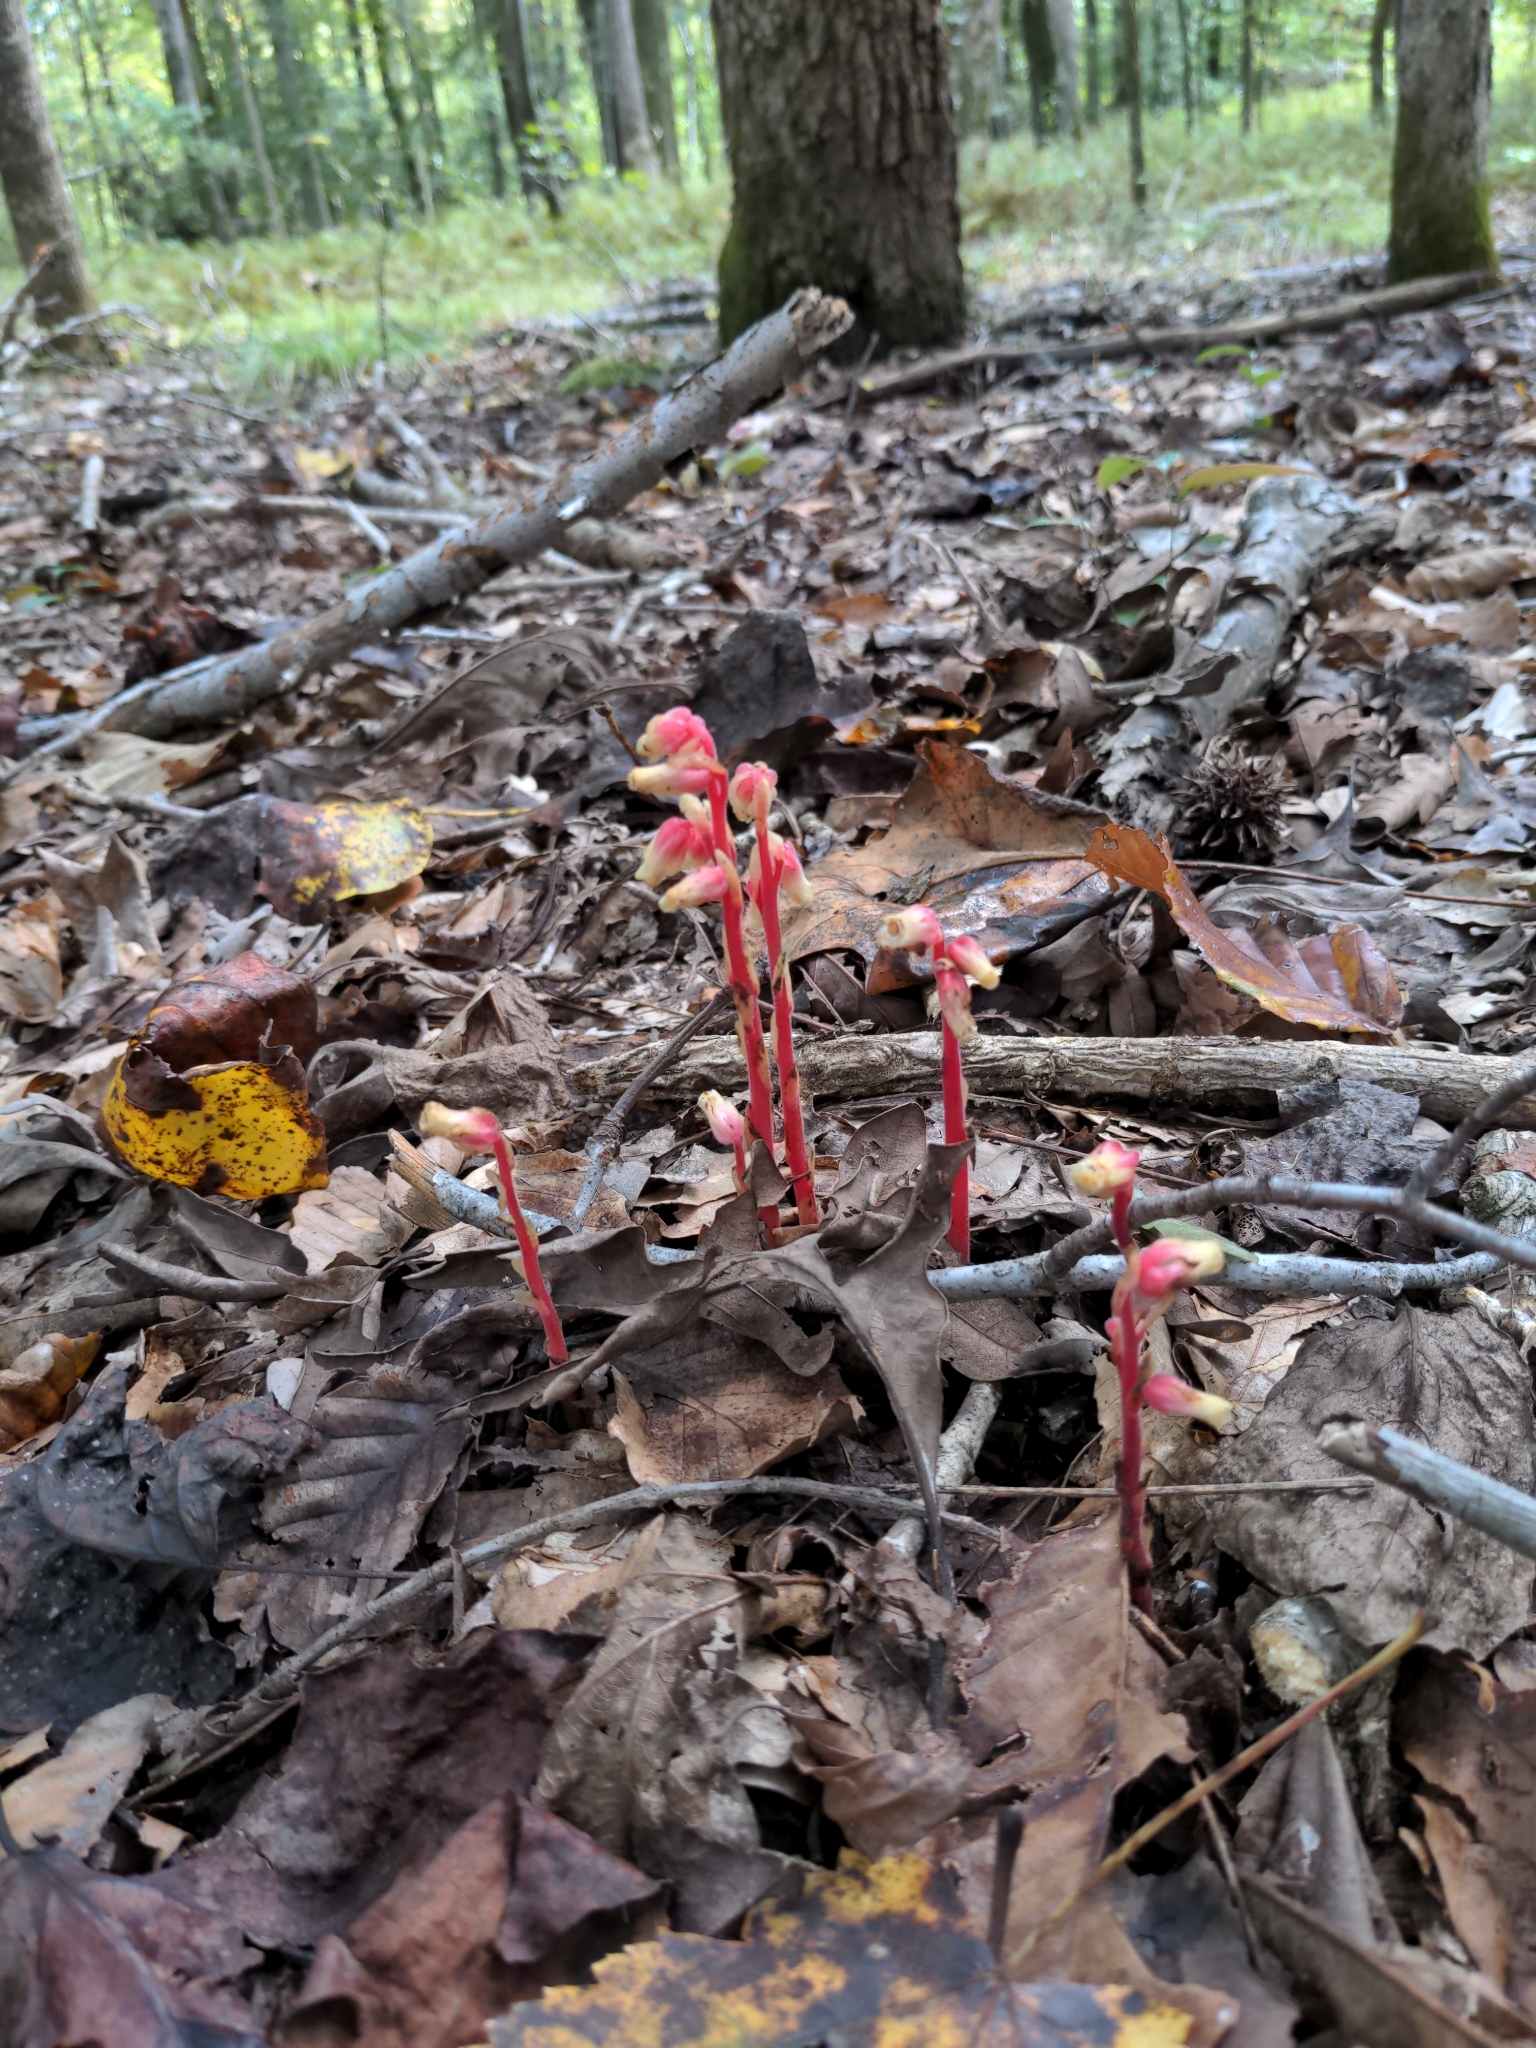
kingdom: Plantae
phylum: Tracheophyta
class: Magnoliopsida
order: Ericales
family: Ericaceae
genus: Hypopitys
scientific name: Hypopitys monotropa
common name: Yellow bird's-nest
